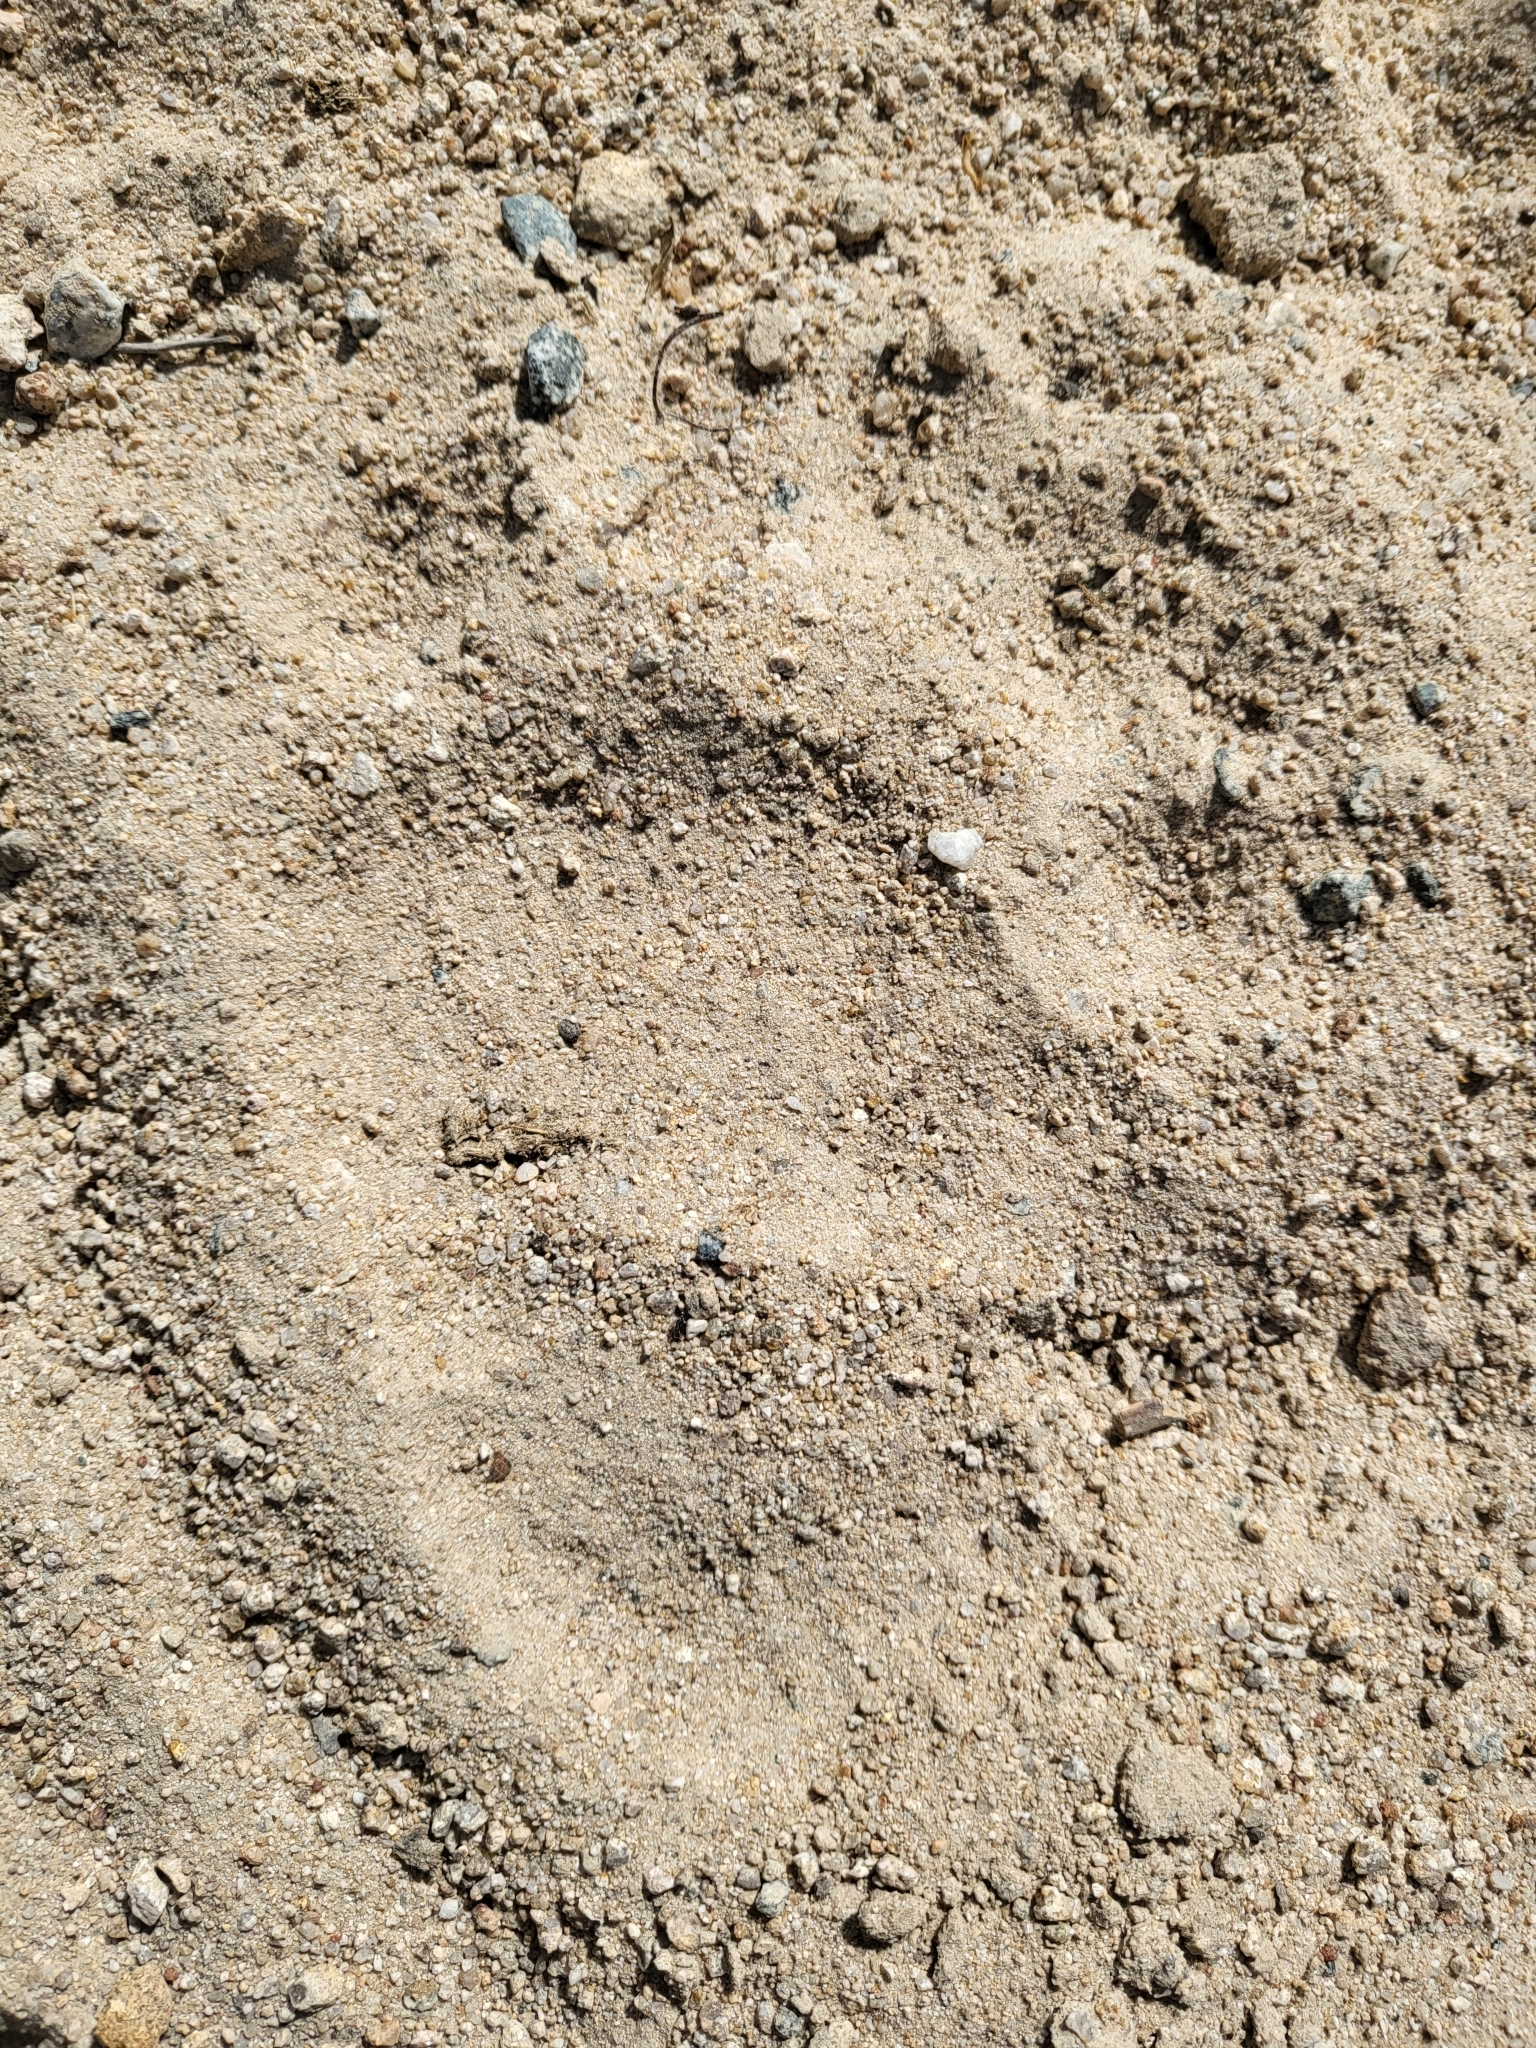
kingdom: Animalia
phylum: Chordata
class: Mammalia
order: Carnivora
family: Ursidae
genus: Ursus
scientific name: Ursus americanus
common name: American black bear
